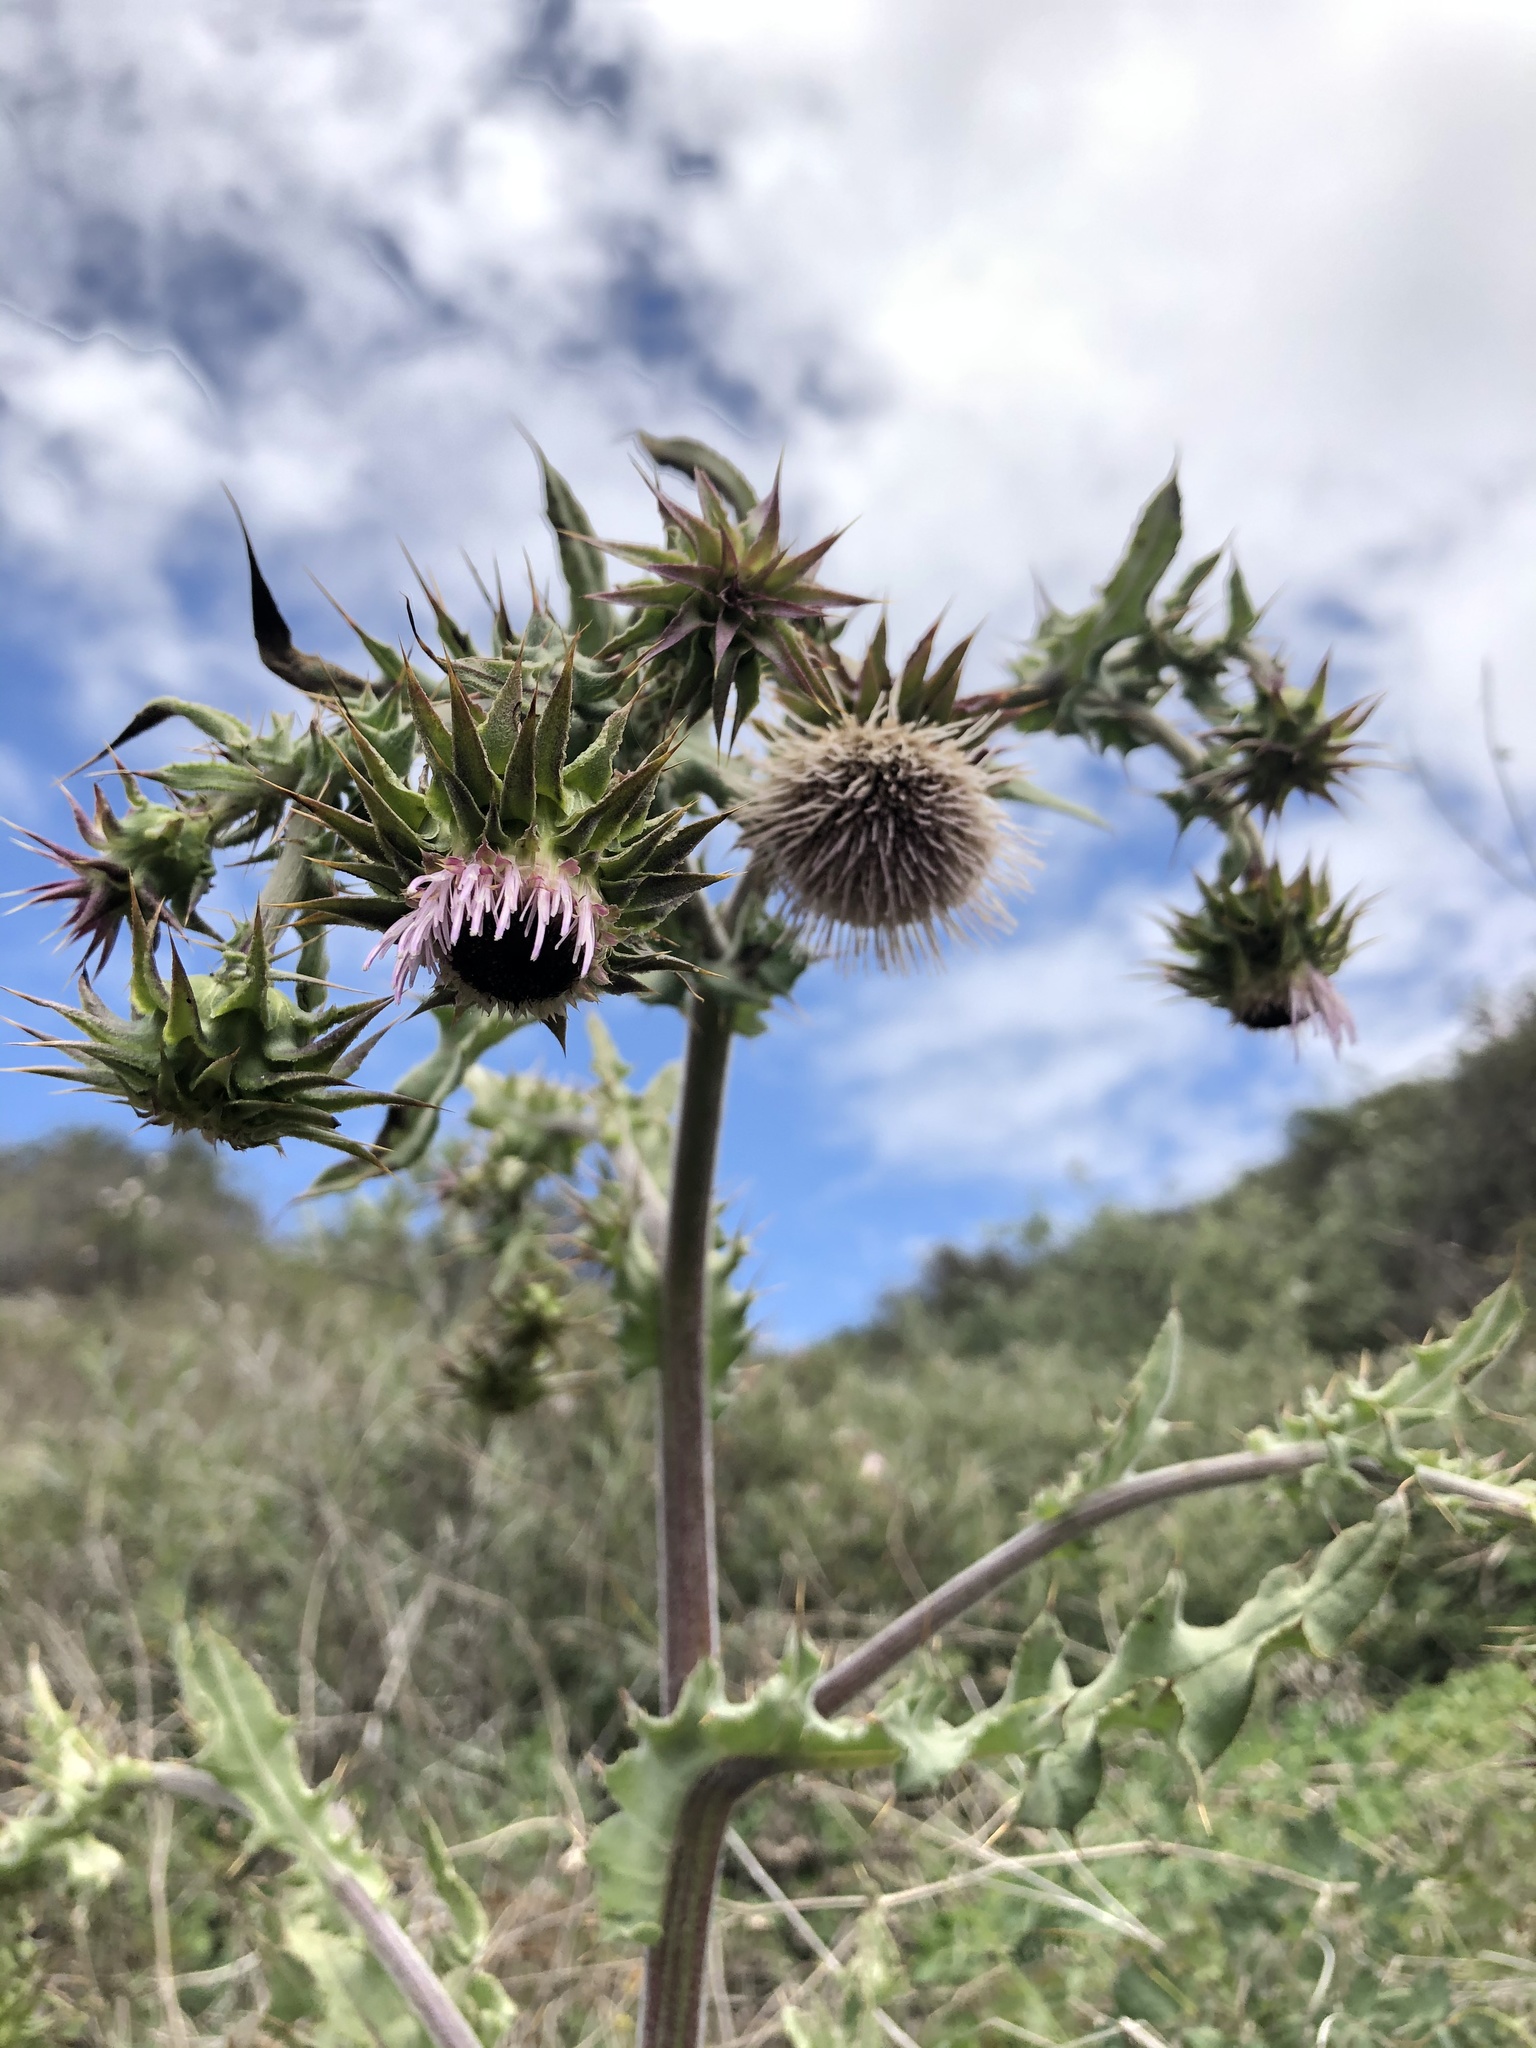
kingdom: Plantae
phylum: Tracheophyta
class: Magnoliopsida
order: Asterales
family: Asteraceae
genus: Cirsium
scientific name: Cirsium fontinale
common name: Fountain thistle
